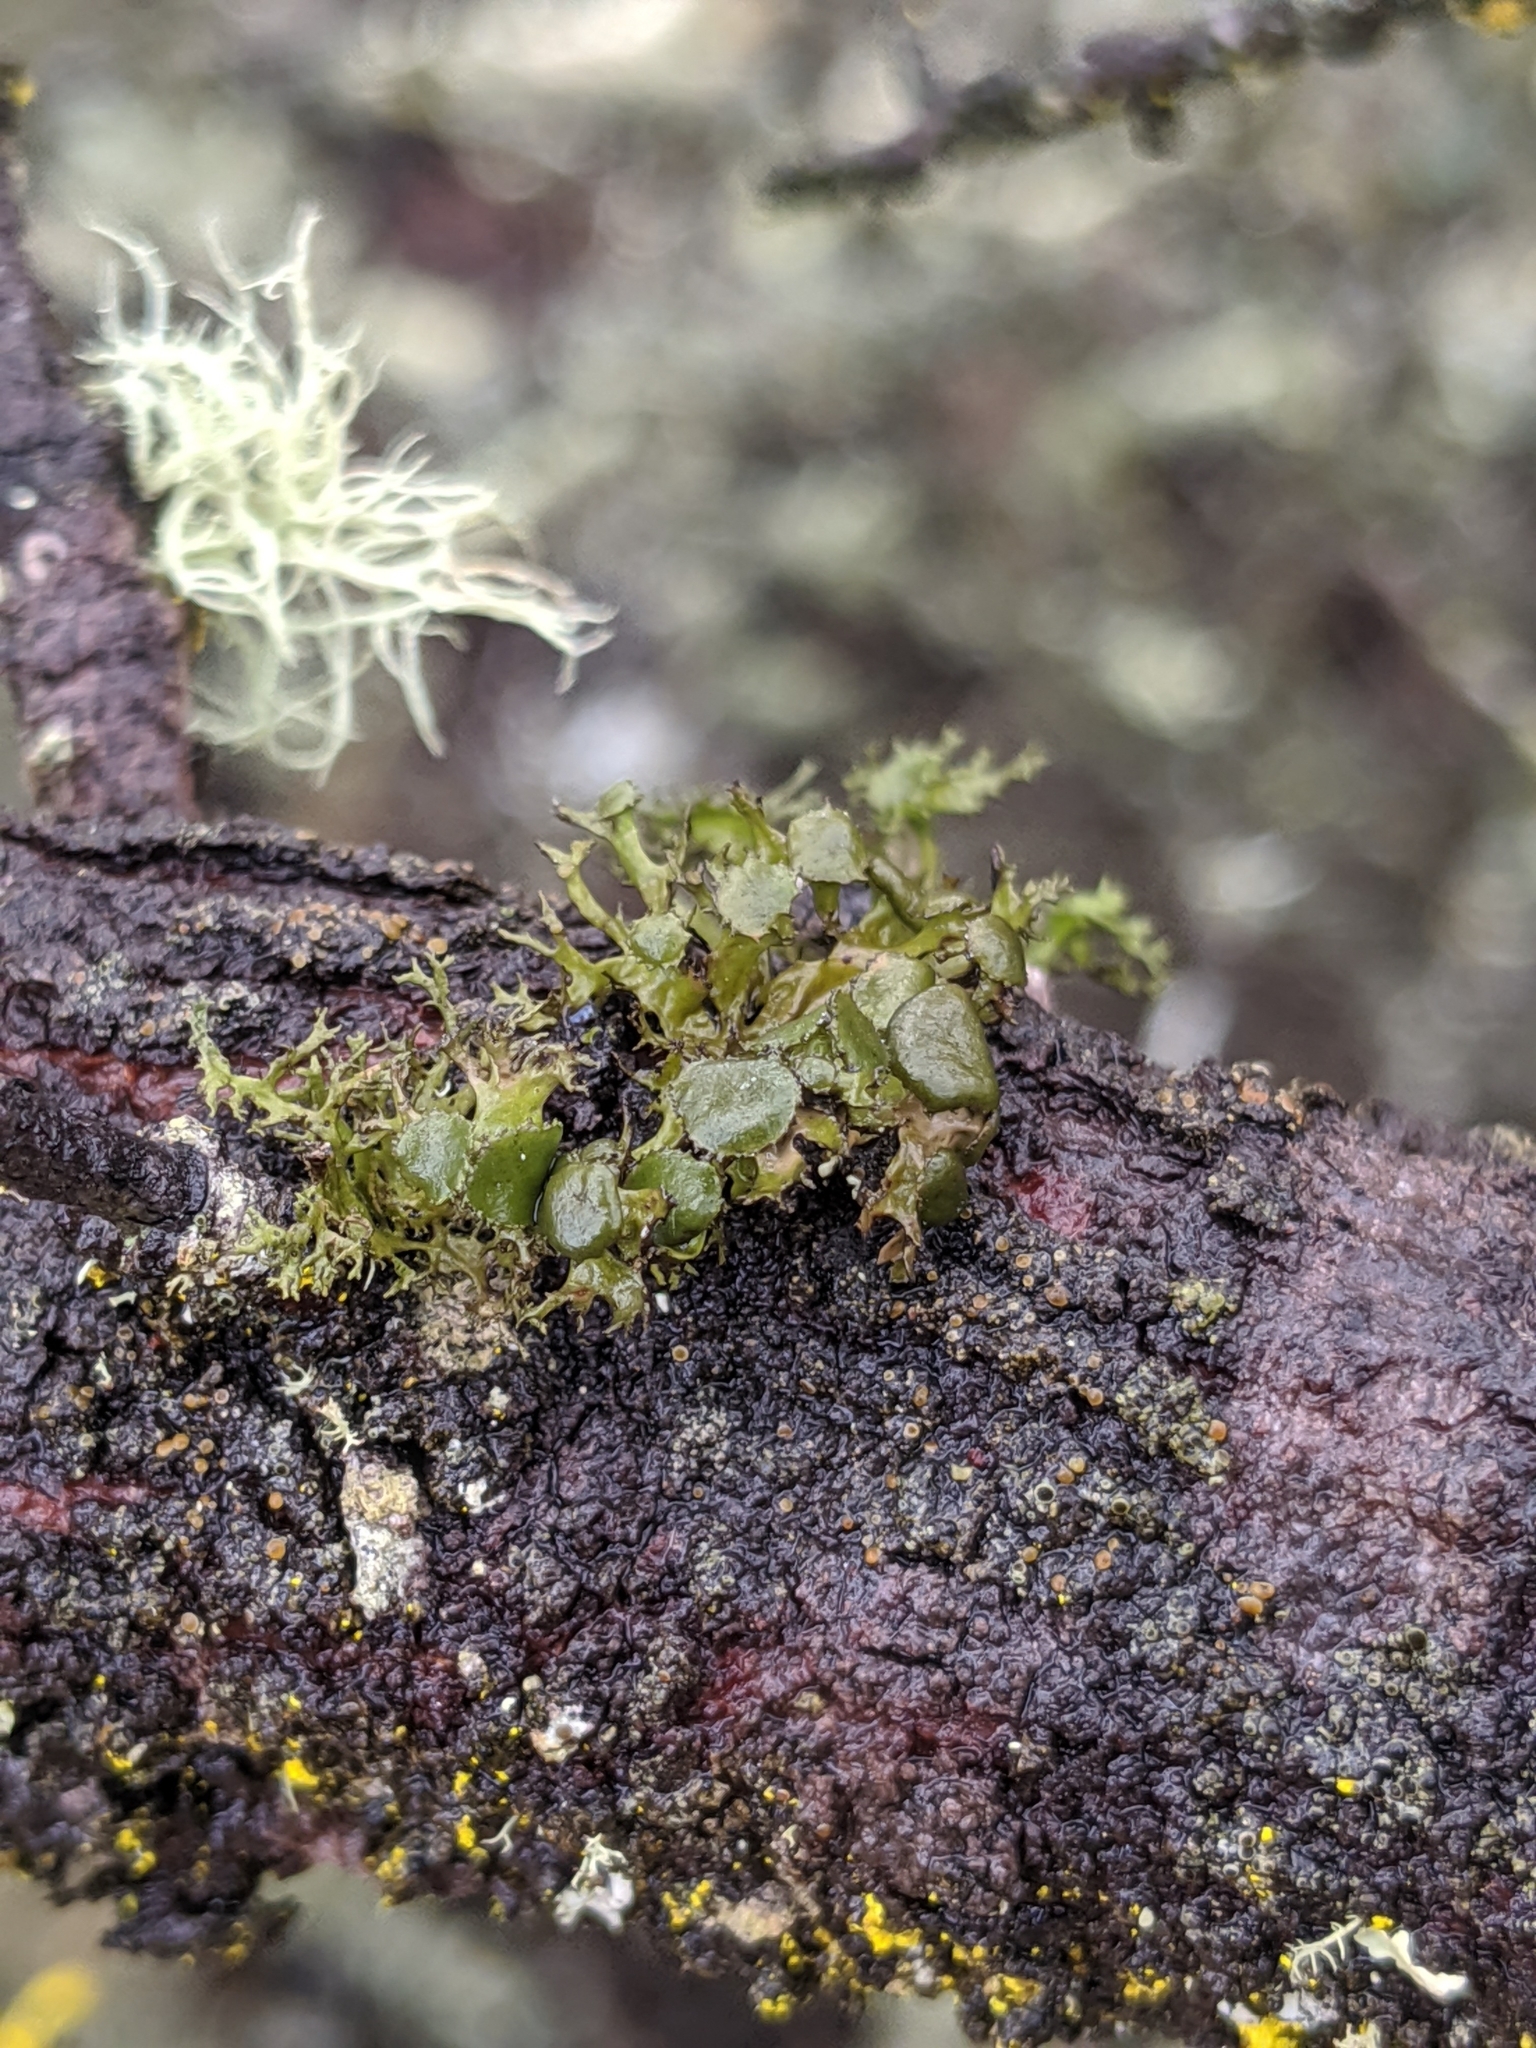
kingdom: Fungi
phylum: Ascomycota
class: Lecanoromycetes
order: Lecanorales
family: Parmeliaceae
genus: Nephromopsis
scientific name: Nephromopsis tuckermanii
